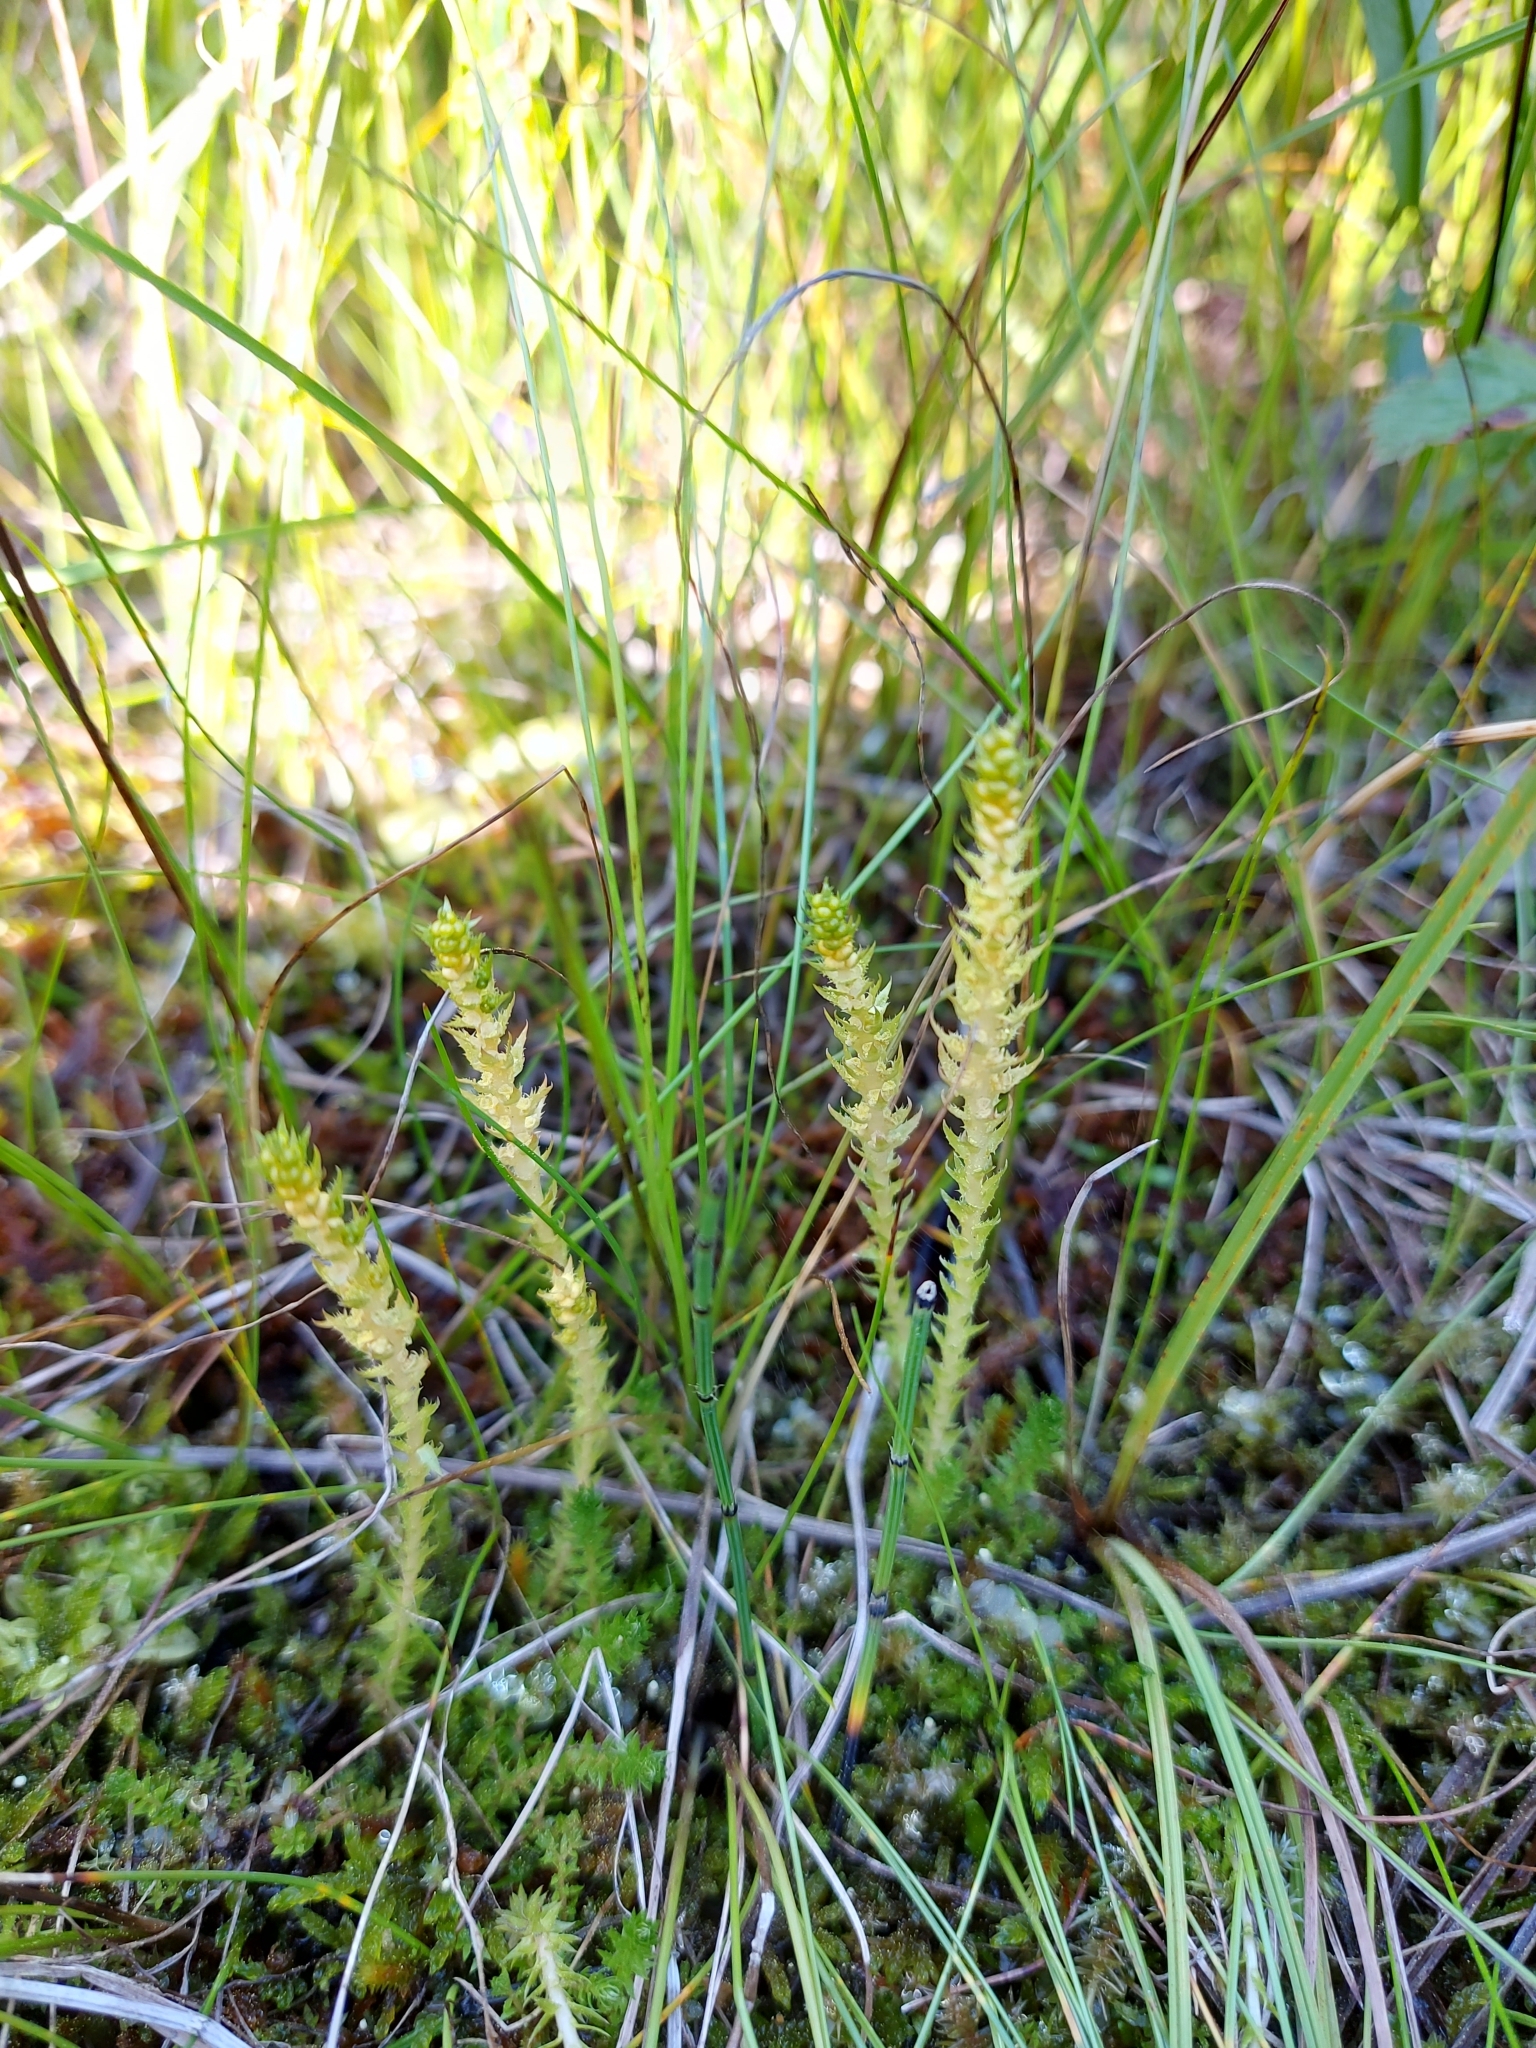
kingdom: Plantae
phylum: Tracheophyta
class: Lycopodiopsida
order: Selaginellales
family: Selaginellaceae
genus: Selaginella
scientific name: Selaginella selaginoides
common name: Prickly mountain-moss
